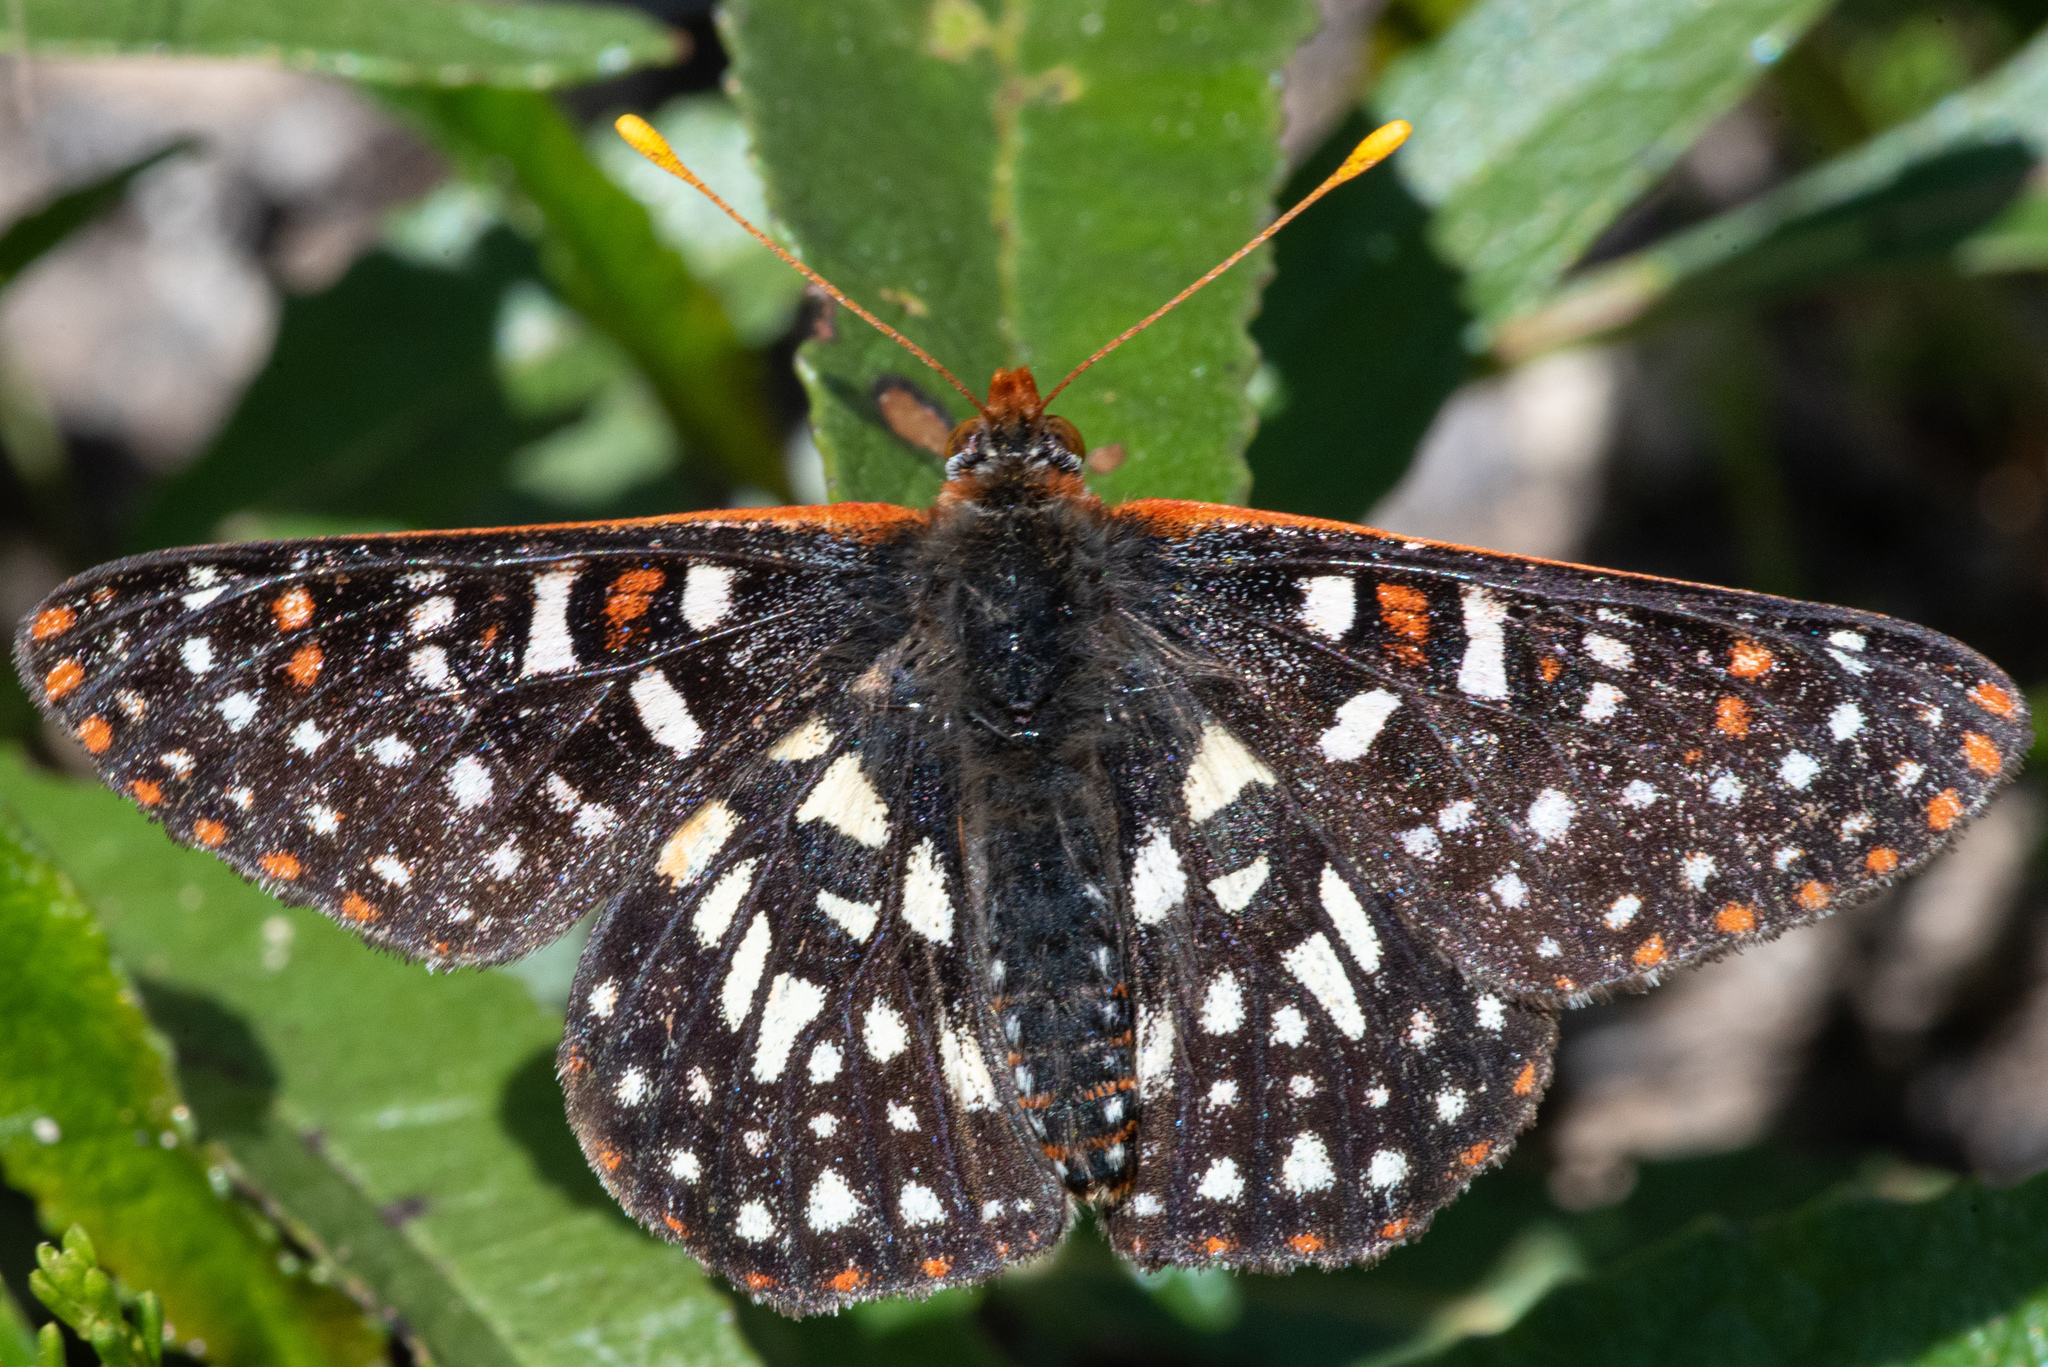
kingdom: Animalia
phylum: Arthropoda
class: Insecta
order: Lepidoptera
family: Nymphalidae
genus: Occidryas
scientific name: Occidryas chalcedona
